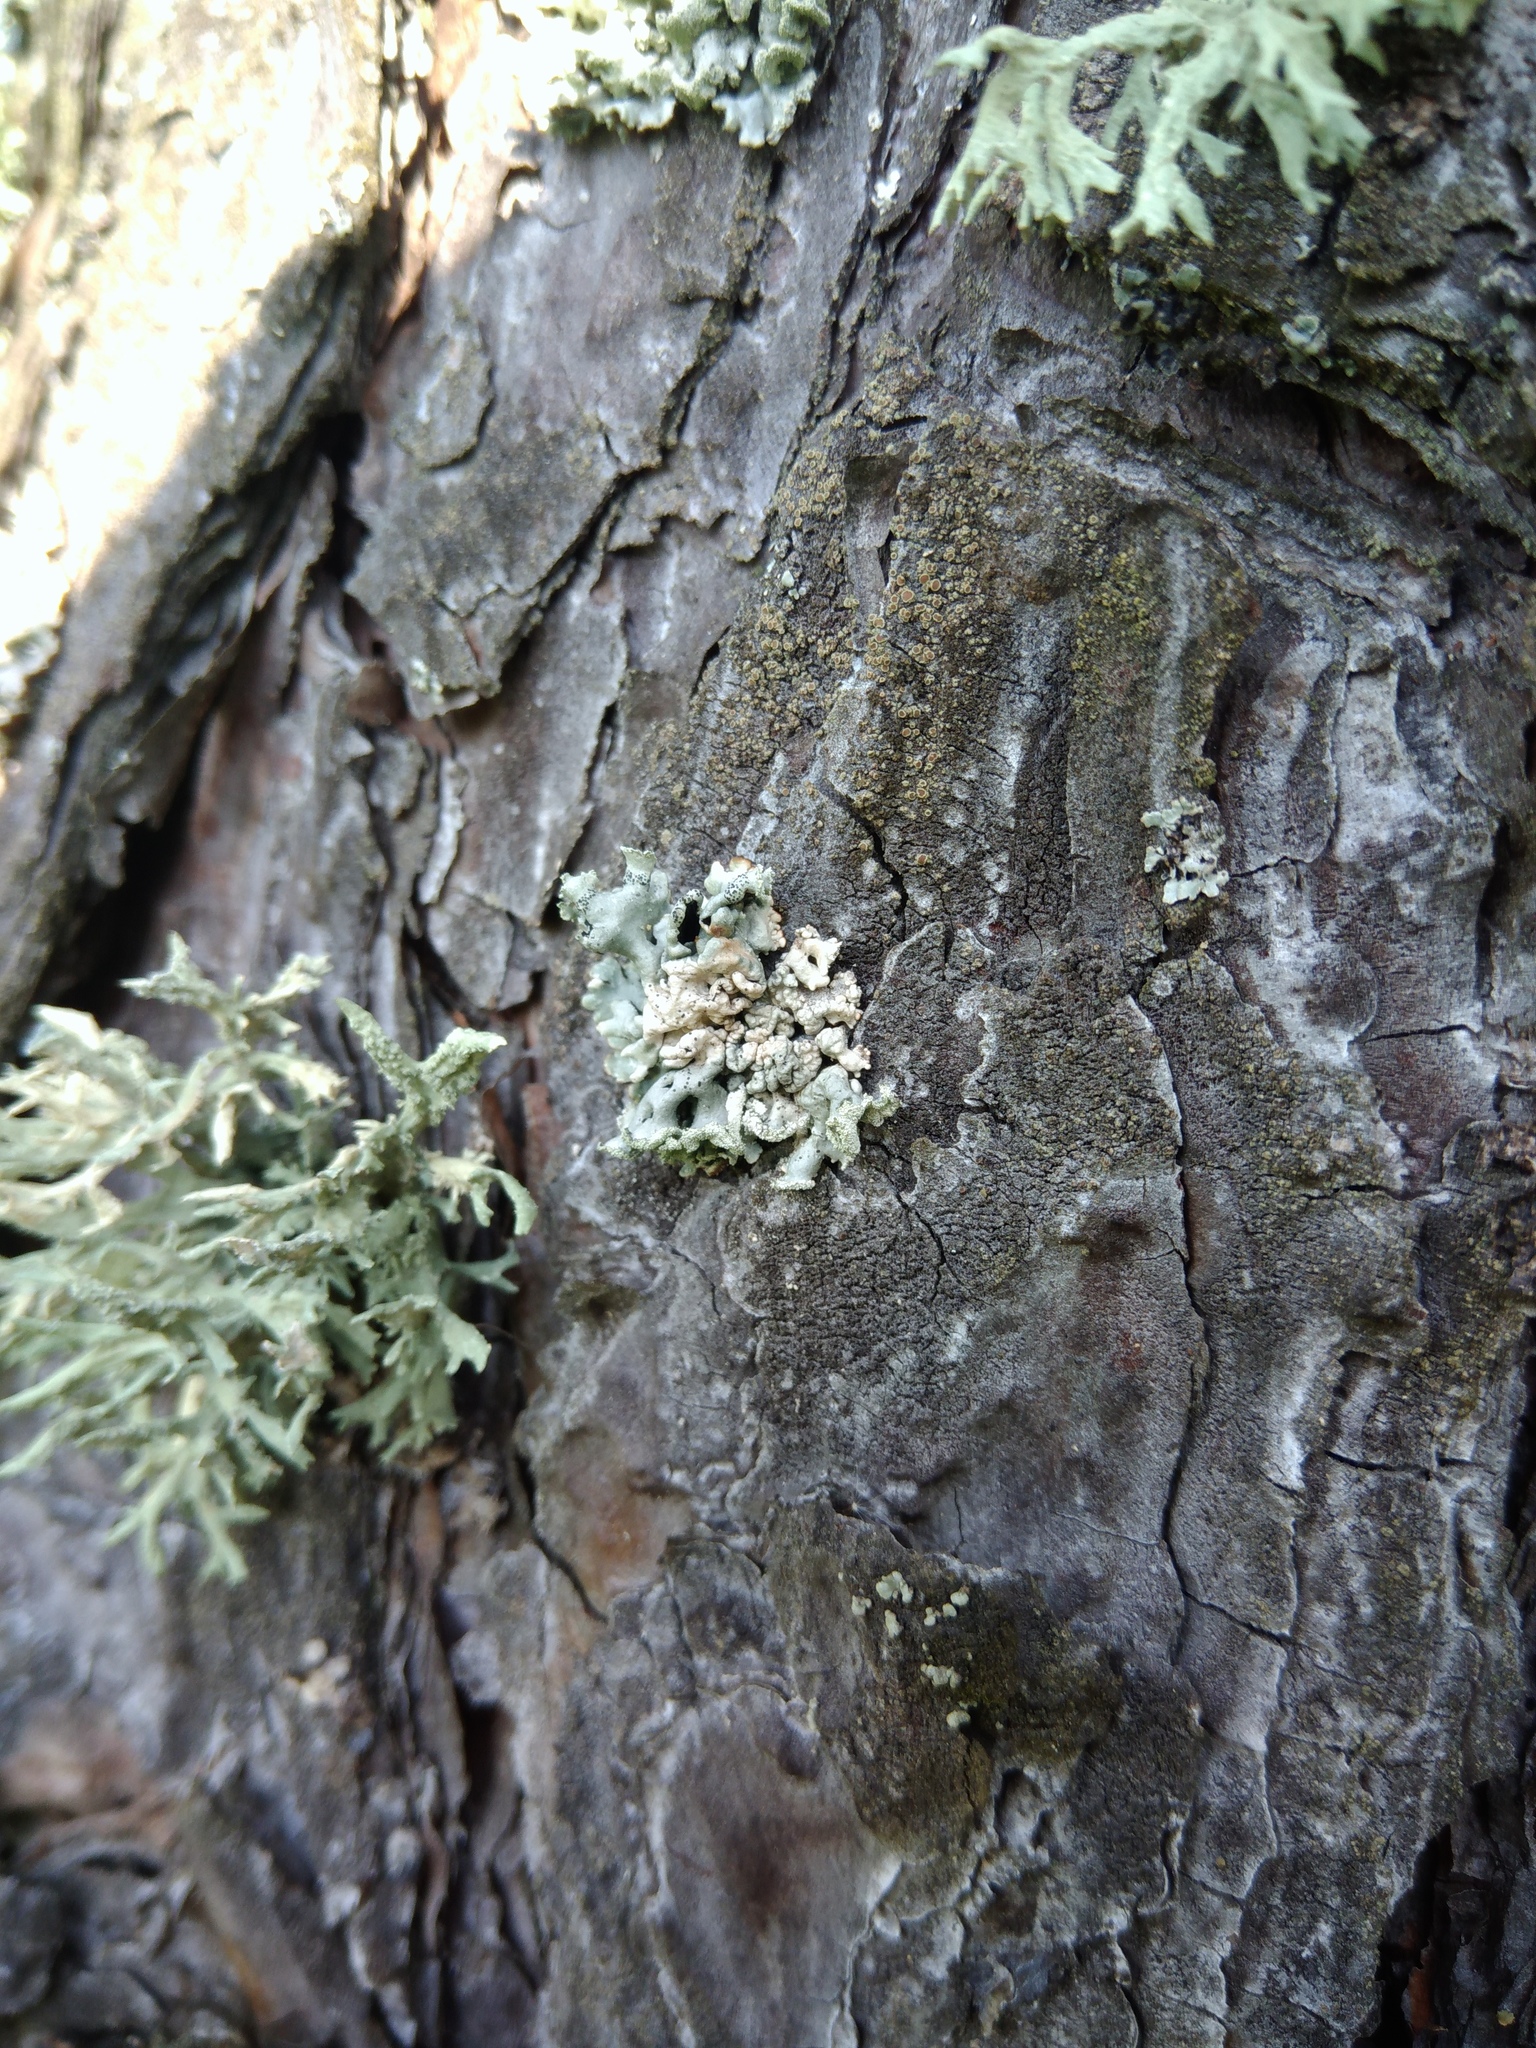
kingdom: Fungi
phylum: Ascomycota
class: Lecanoromycetes
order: Lecanorales
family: Parmeliaceae
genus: Hypogymnia
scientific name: Hypogymnia physodes
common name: Dark crottle
